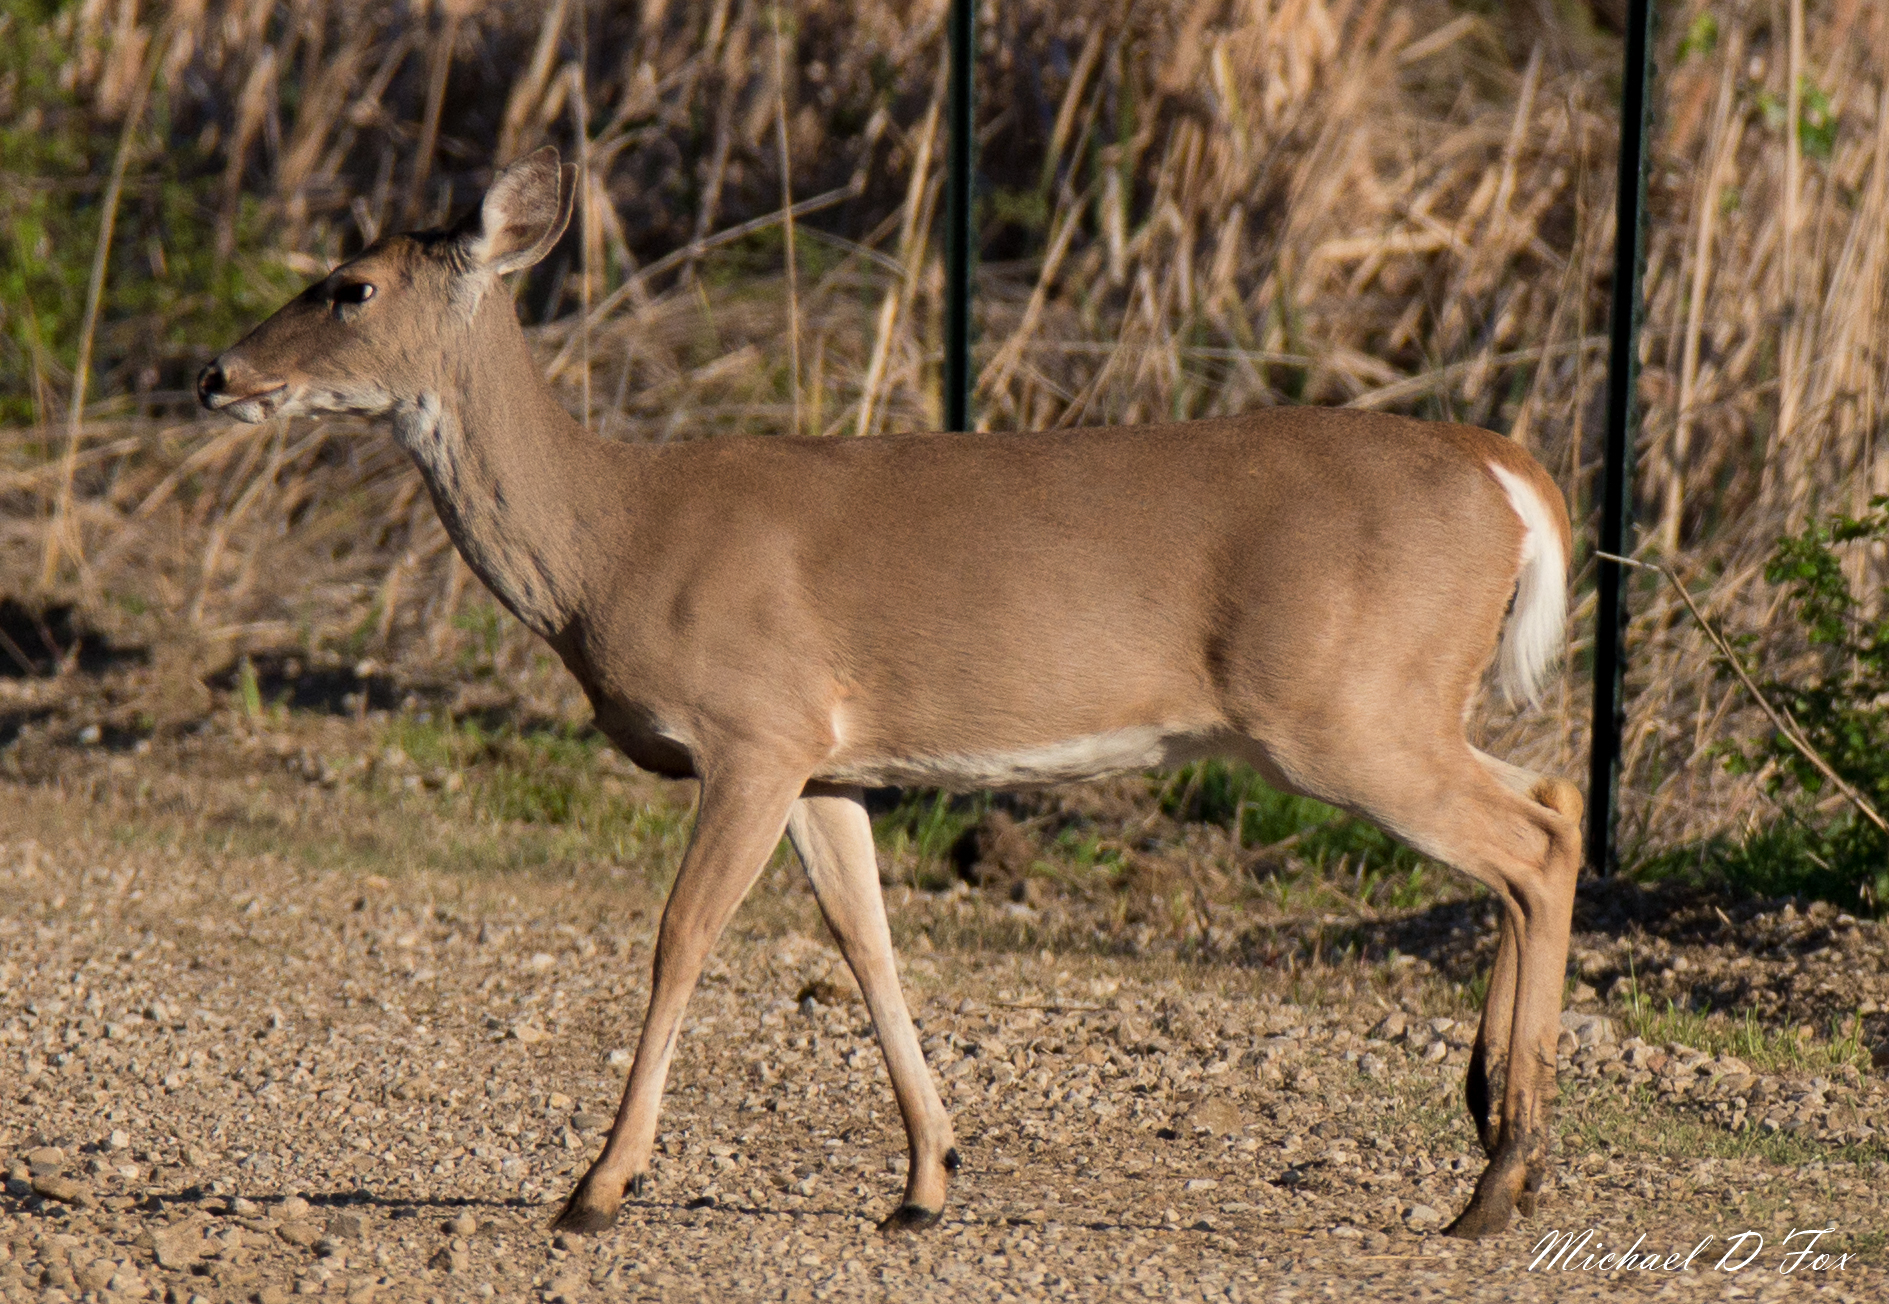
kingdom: Animalia
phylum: Chordata
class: Mammalia
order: Artiodactyla
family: Cervidae
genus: Odocoileus
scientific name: Odocoileus virginianus
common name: White-tailed deer
